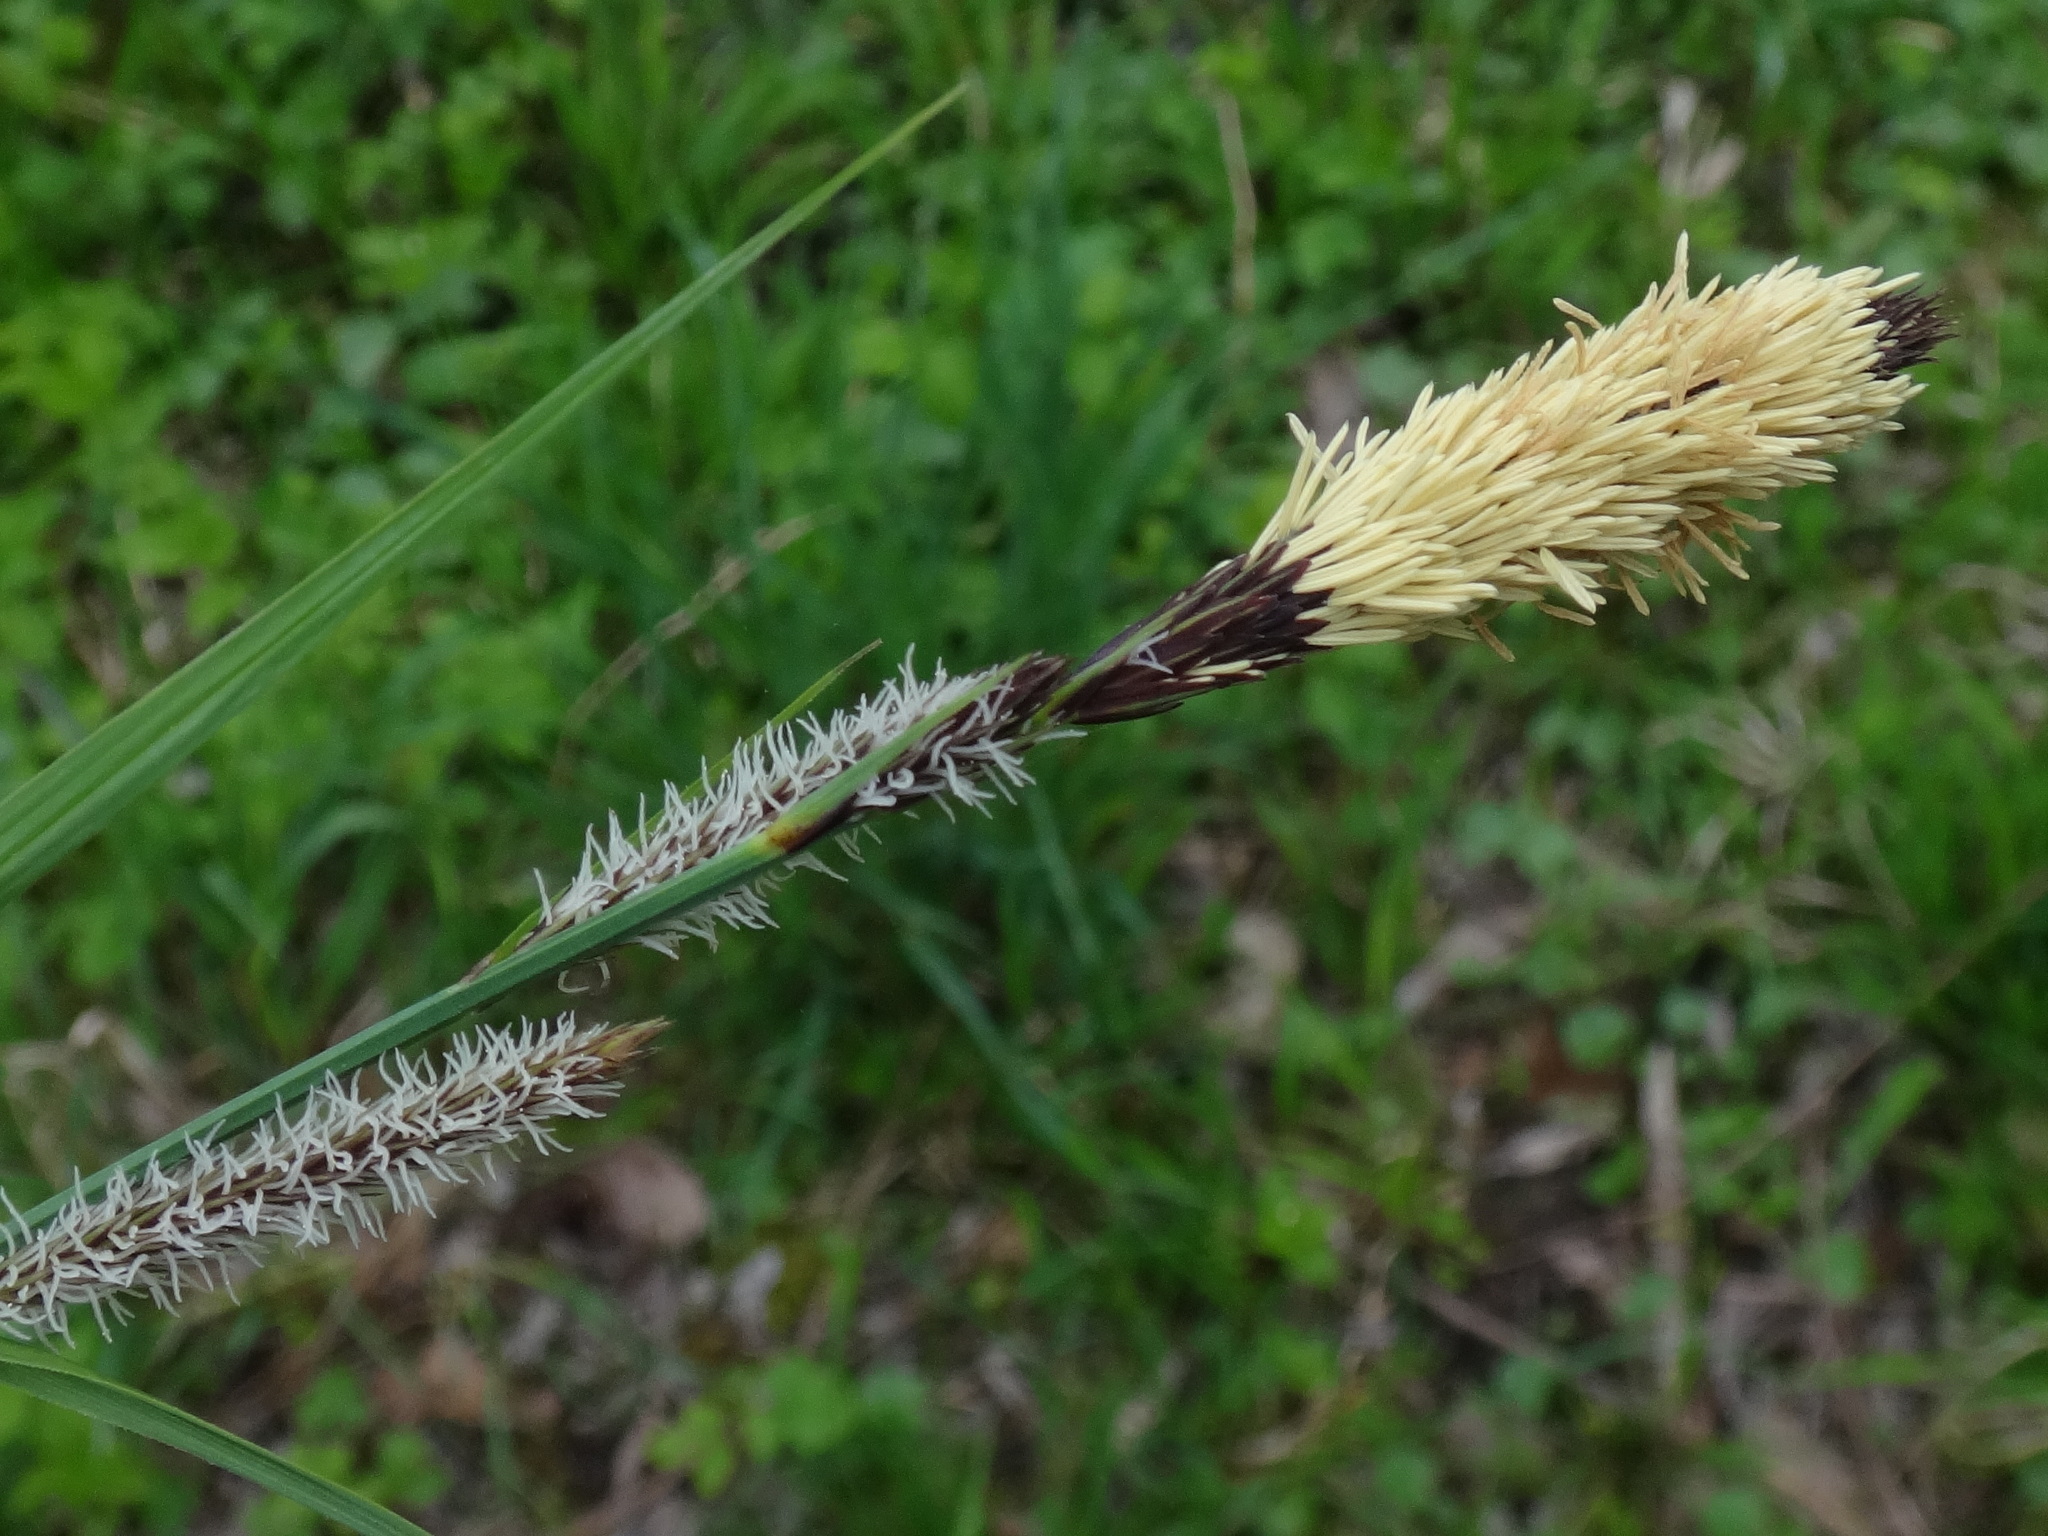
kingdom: Plantae
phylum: Tracheophyta
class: Liliopsida
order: Poales
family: Cyperaceae
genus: Carex
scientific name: Carex acutiformis
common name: Lesser pond-sedge
